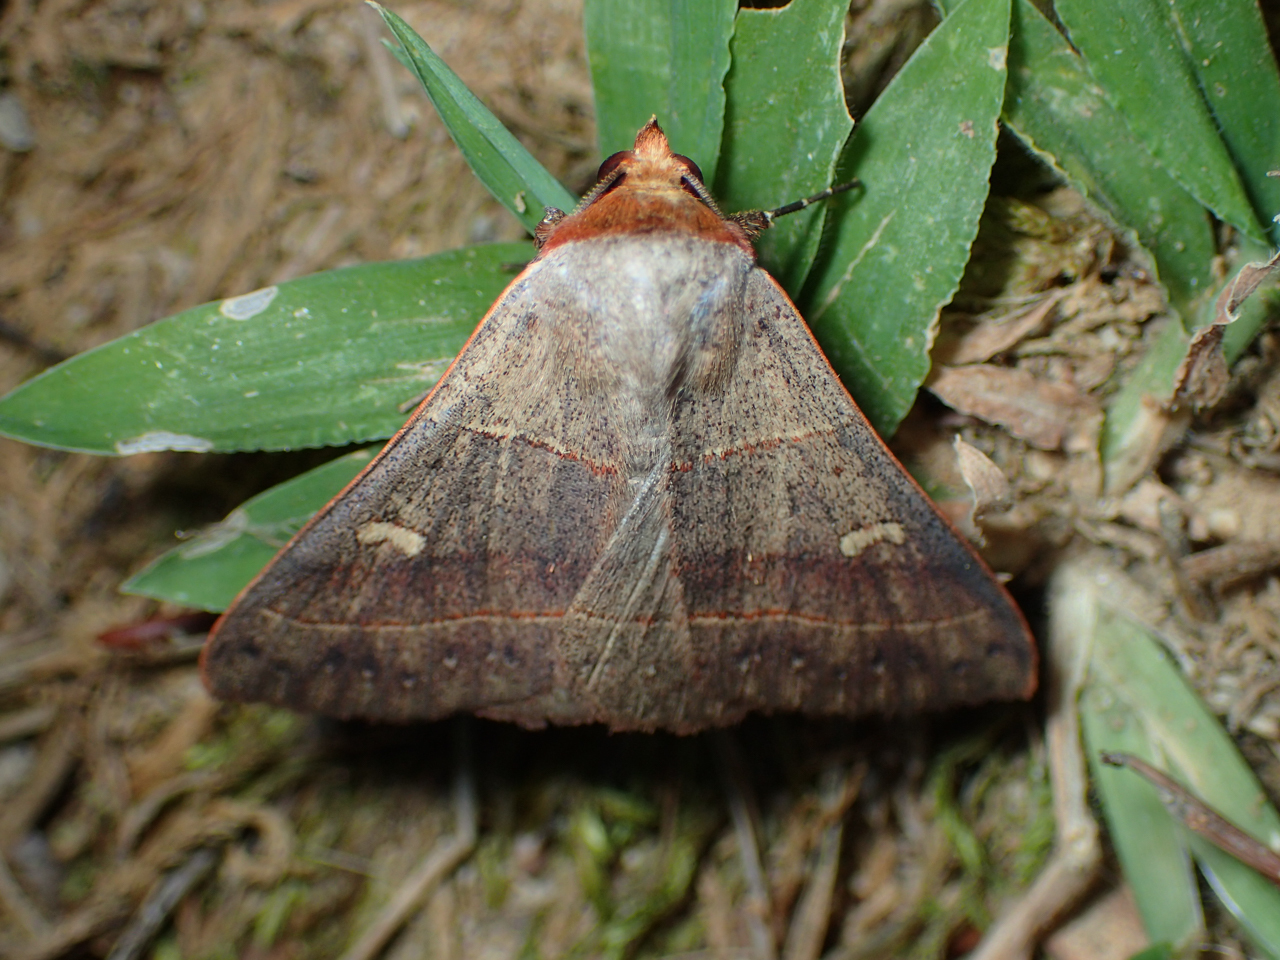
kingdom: Animalia
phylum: Arthropoda
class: Insecta
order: Lepidoptera
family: Erebidae
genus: Panopoda
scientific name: Panopoda rufimargo
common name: Red-lined panopoda moth
